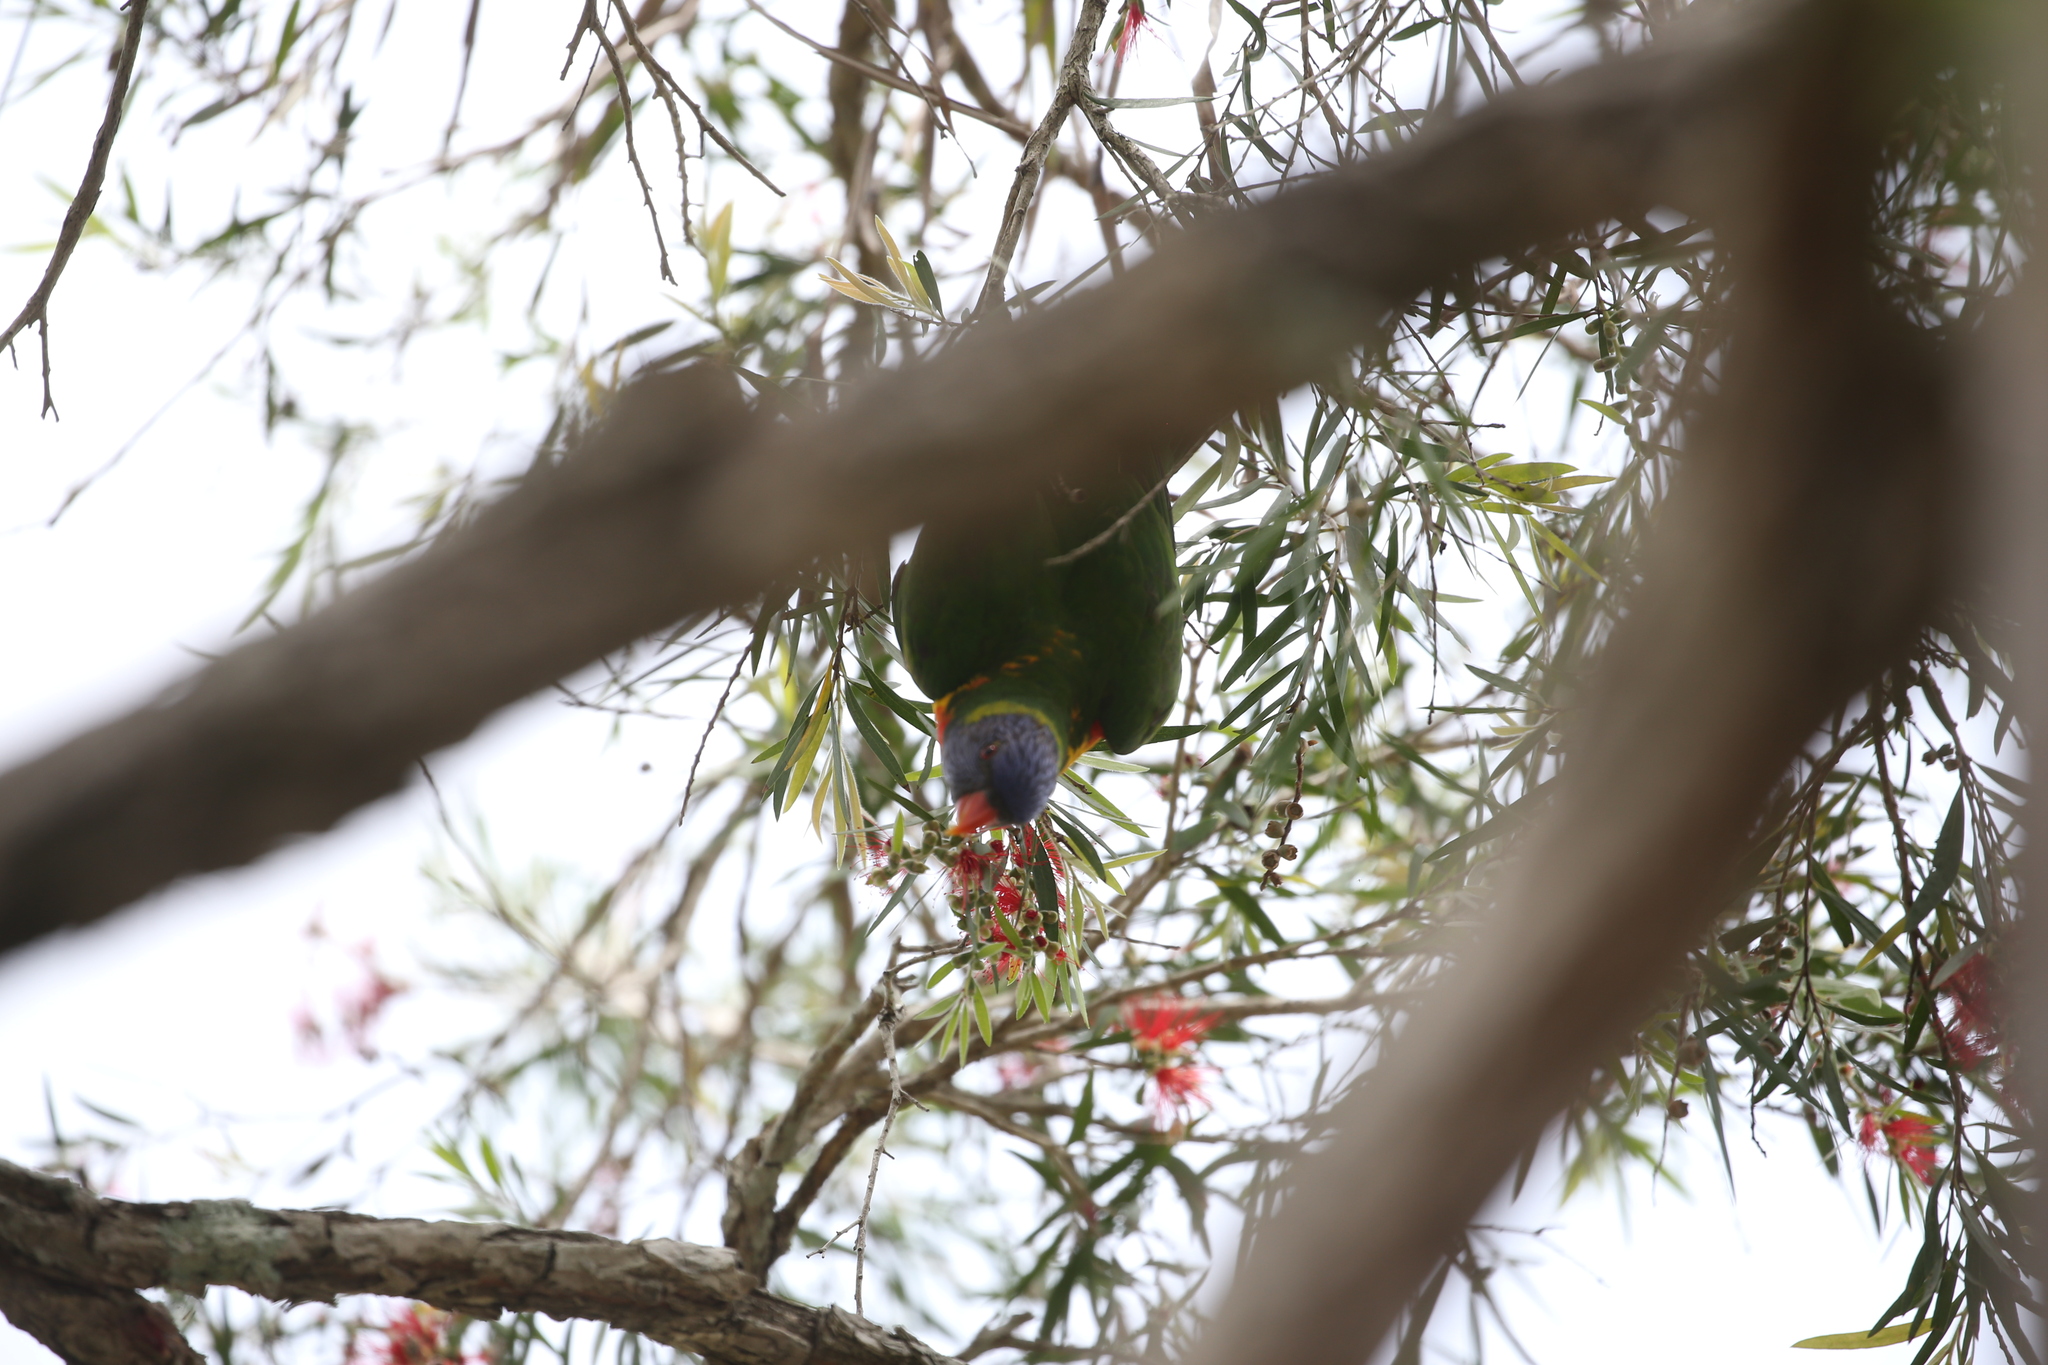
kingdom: Animalia
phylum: Chordata
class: Aves
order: Psittaciformes
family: Psittacidae
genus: Trichoglossus
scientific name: Trichoglossus haematodus
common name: Coconut lorikeet
